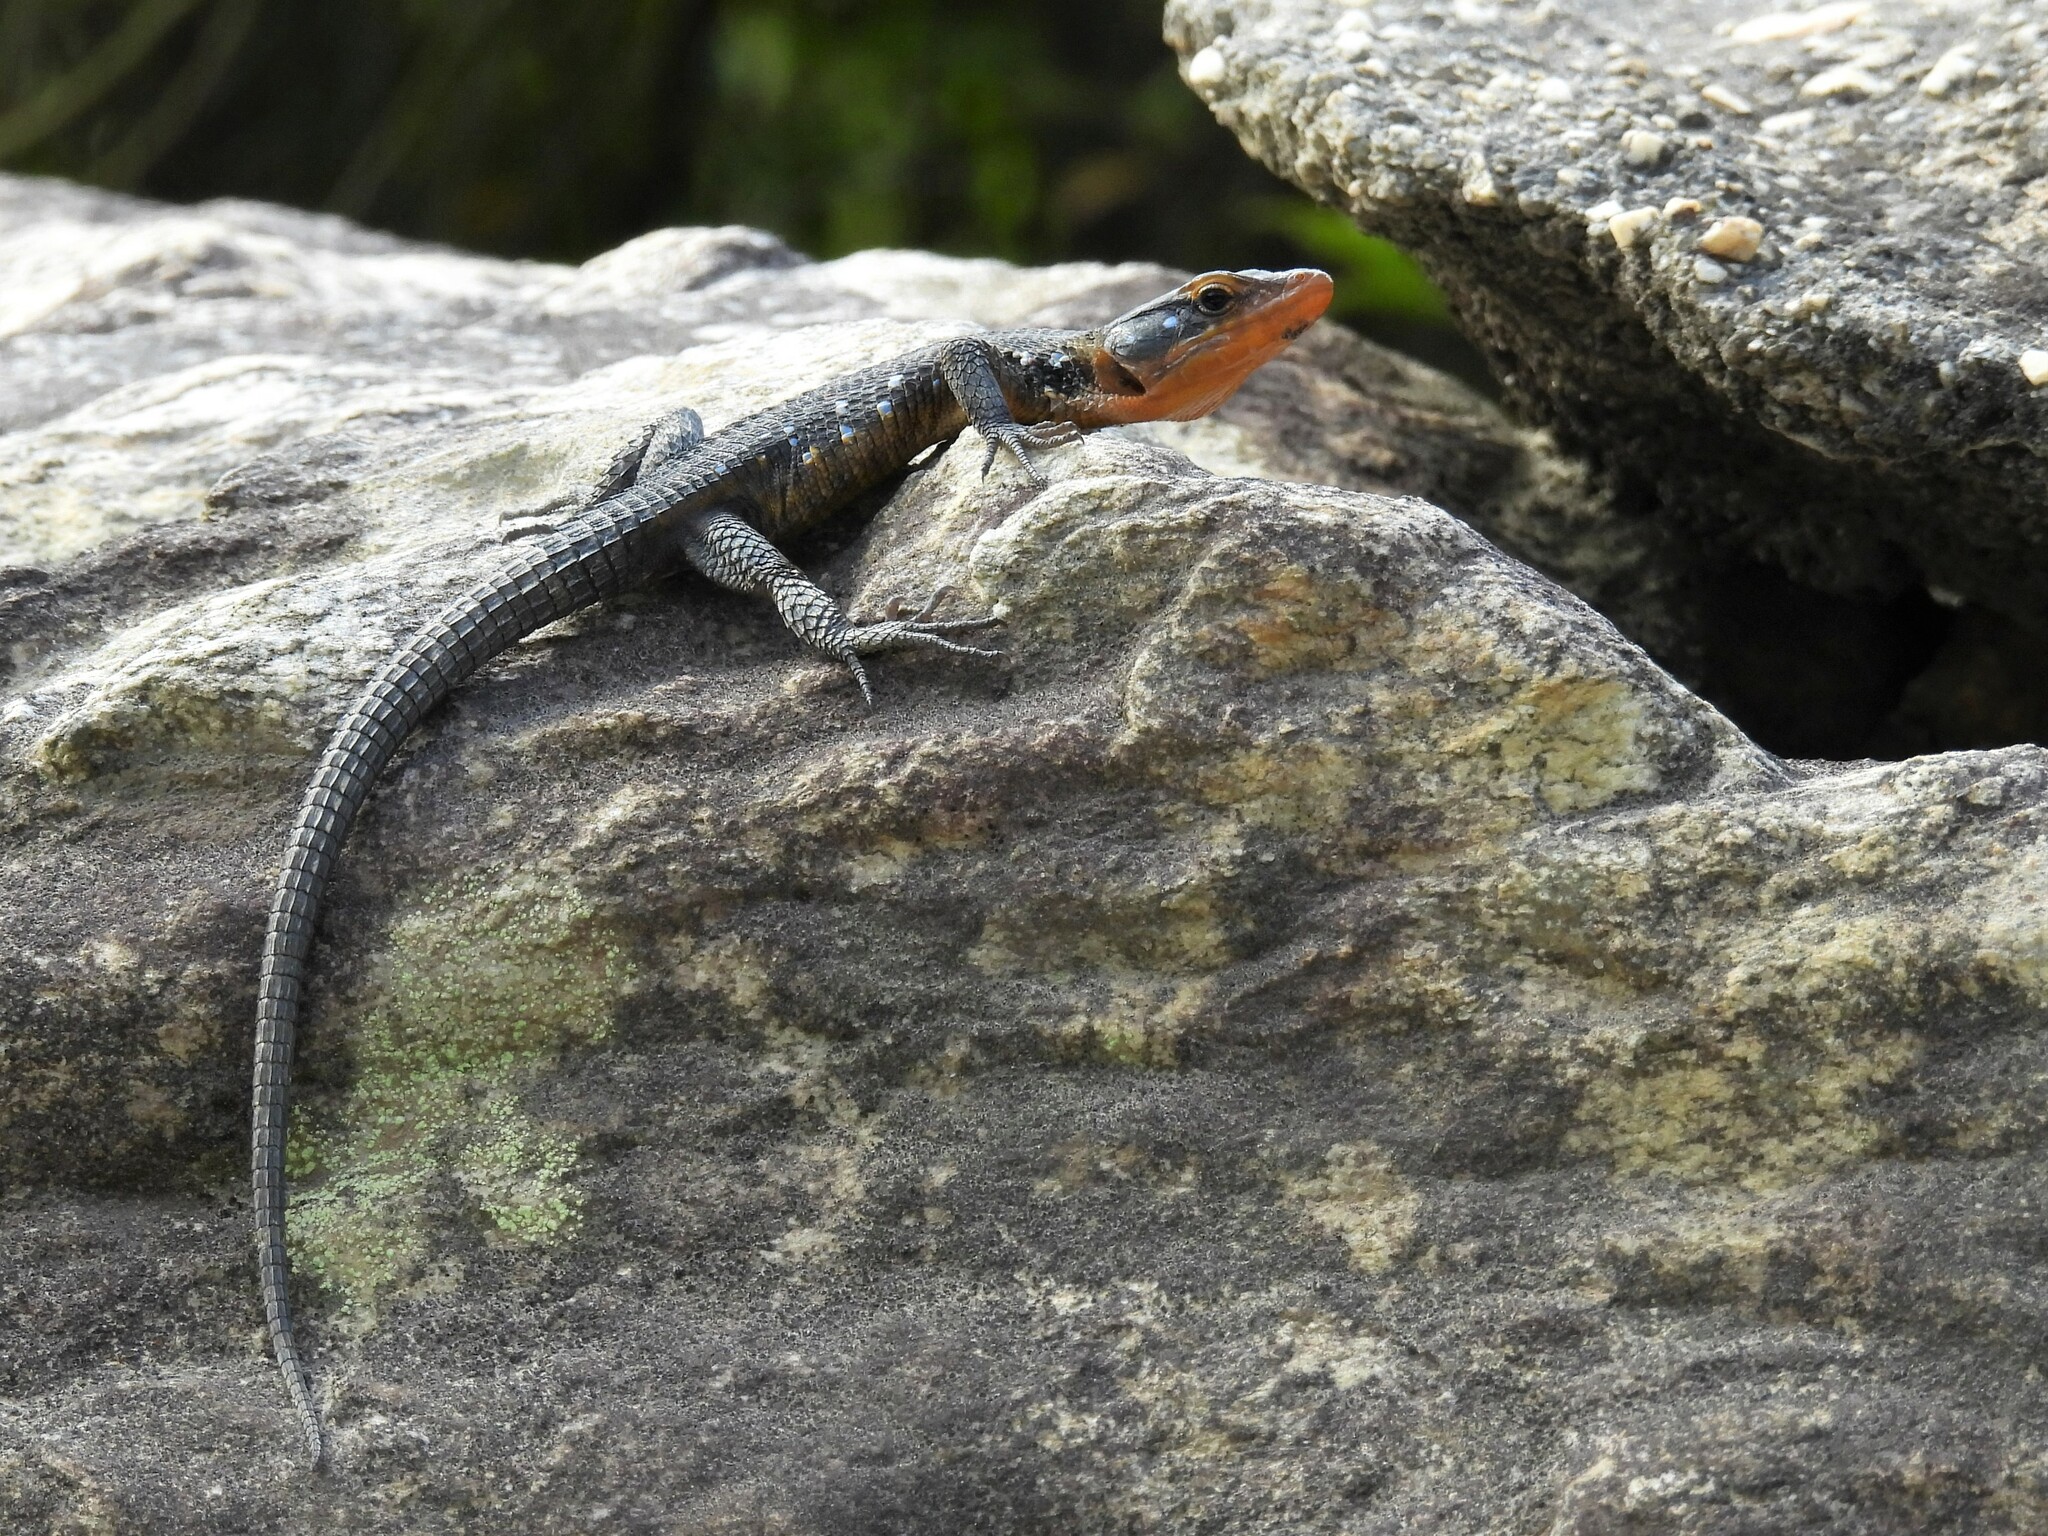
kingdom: Animalia
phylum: Chordata
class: Squamata
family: Cordylidae
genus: Ninurta
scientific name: Ninurta coeruleopunctatus
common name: Blue-spotted girdled lizard
